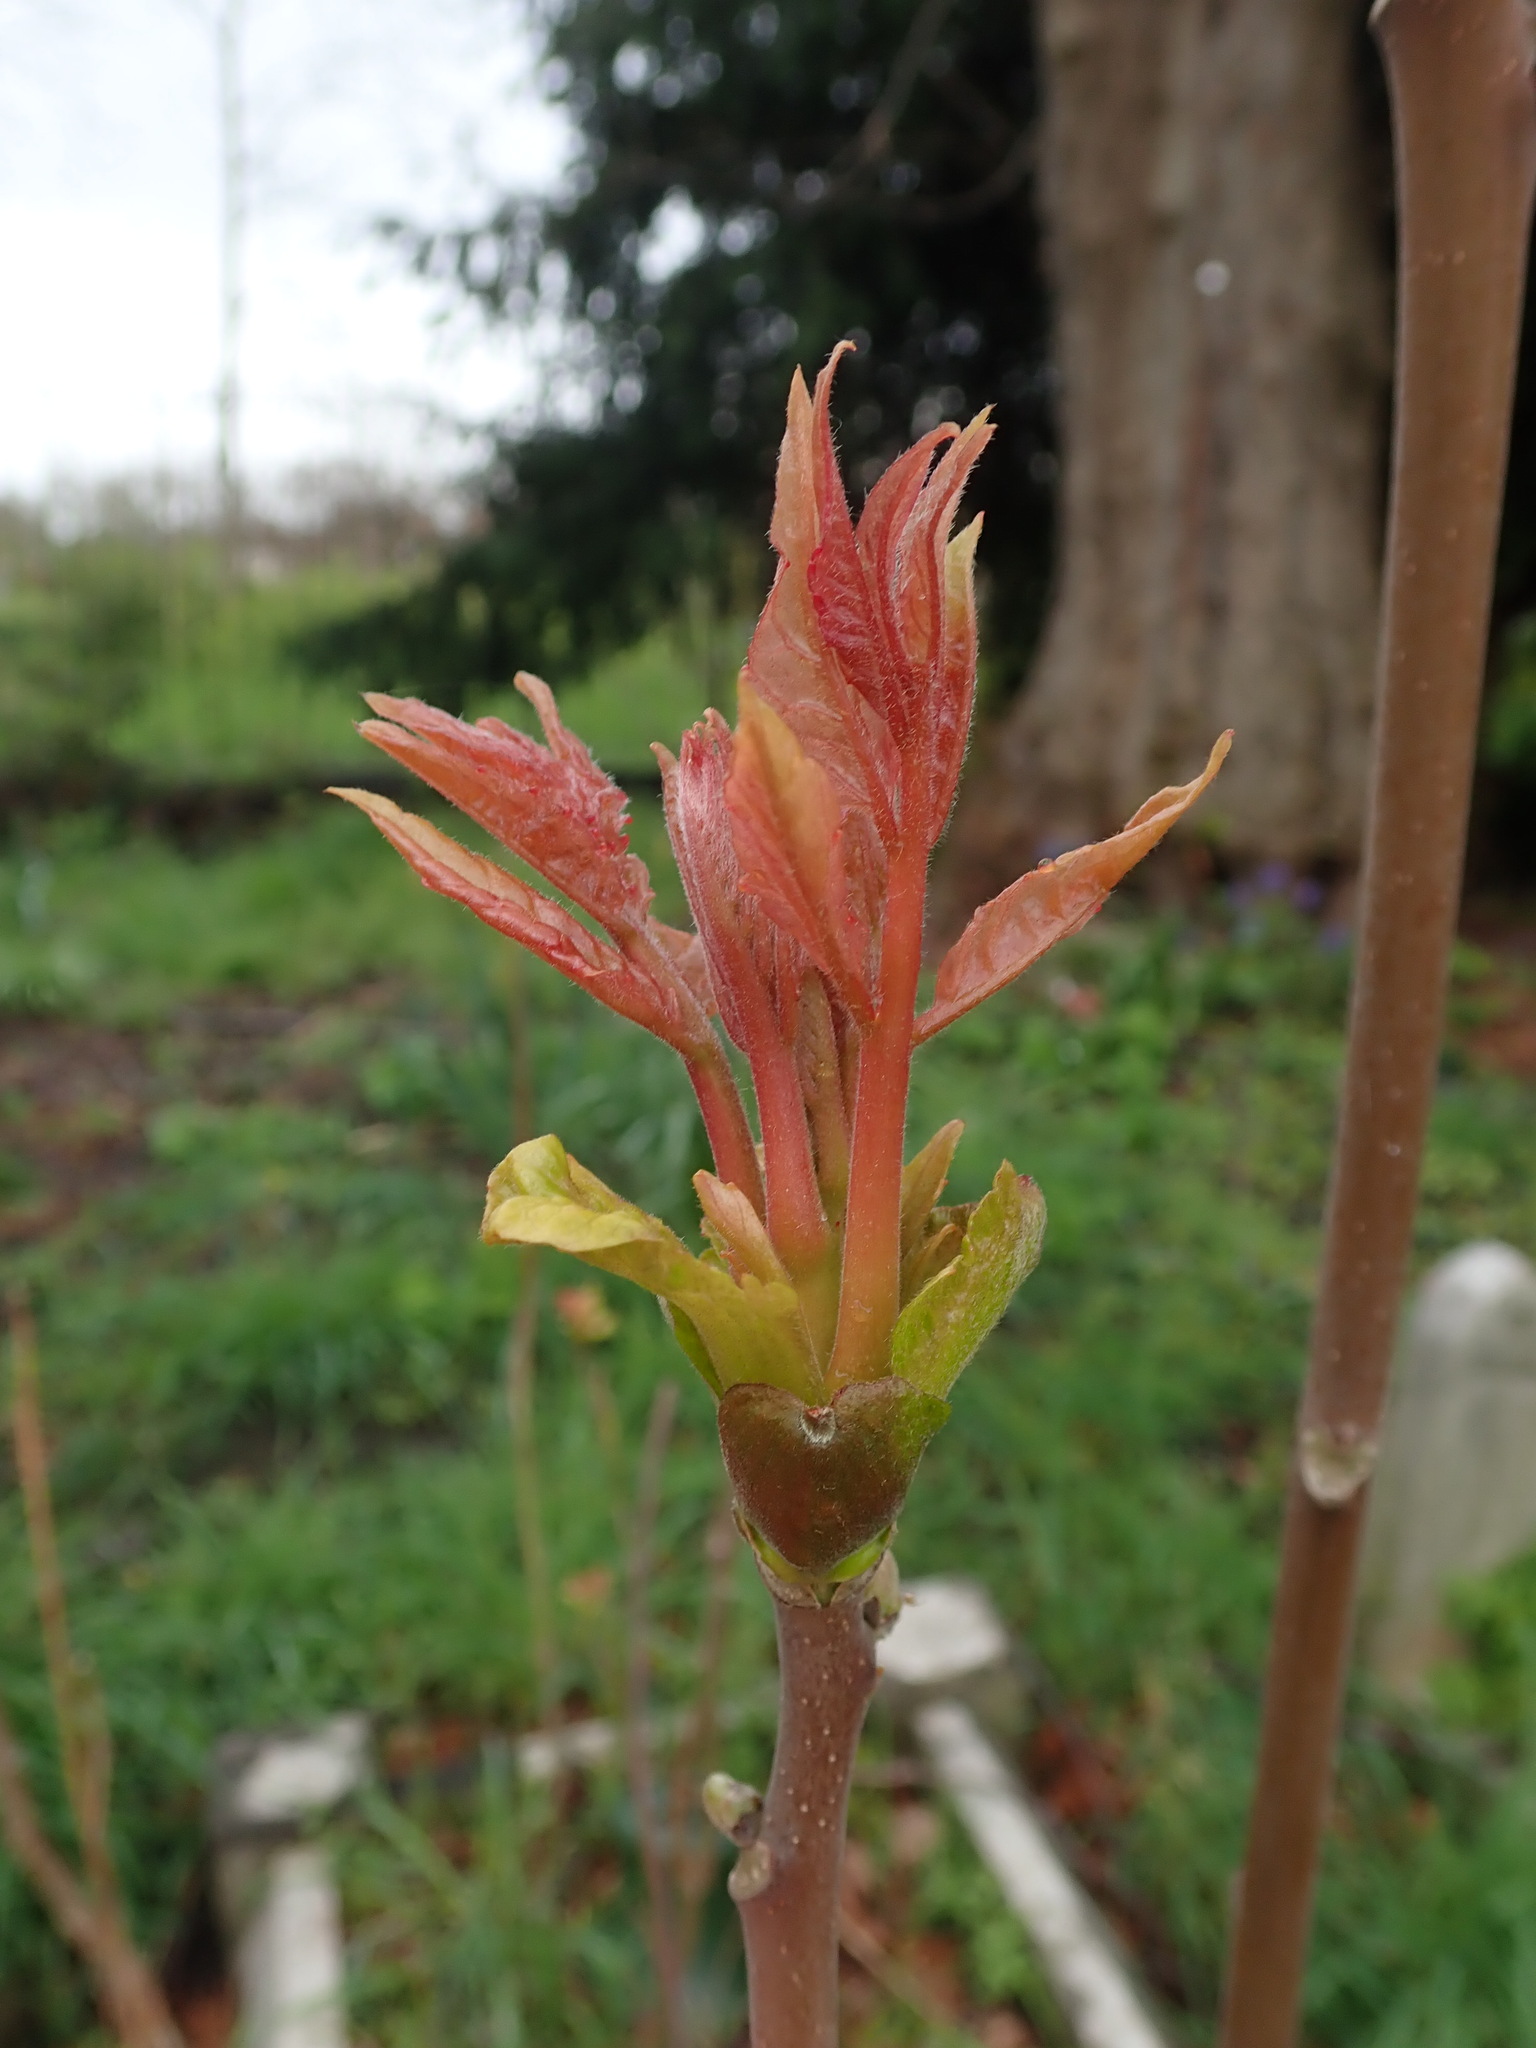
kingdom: Plantae
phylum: Tracheophyta
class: Magnoliopsida
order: Sapindales
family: Simaroubaceae
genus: Ailanthus
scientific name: Ailanthus altissima
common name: Tree-of-heaven
